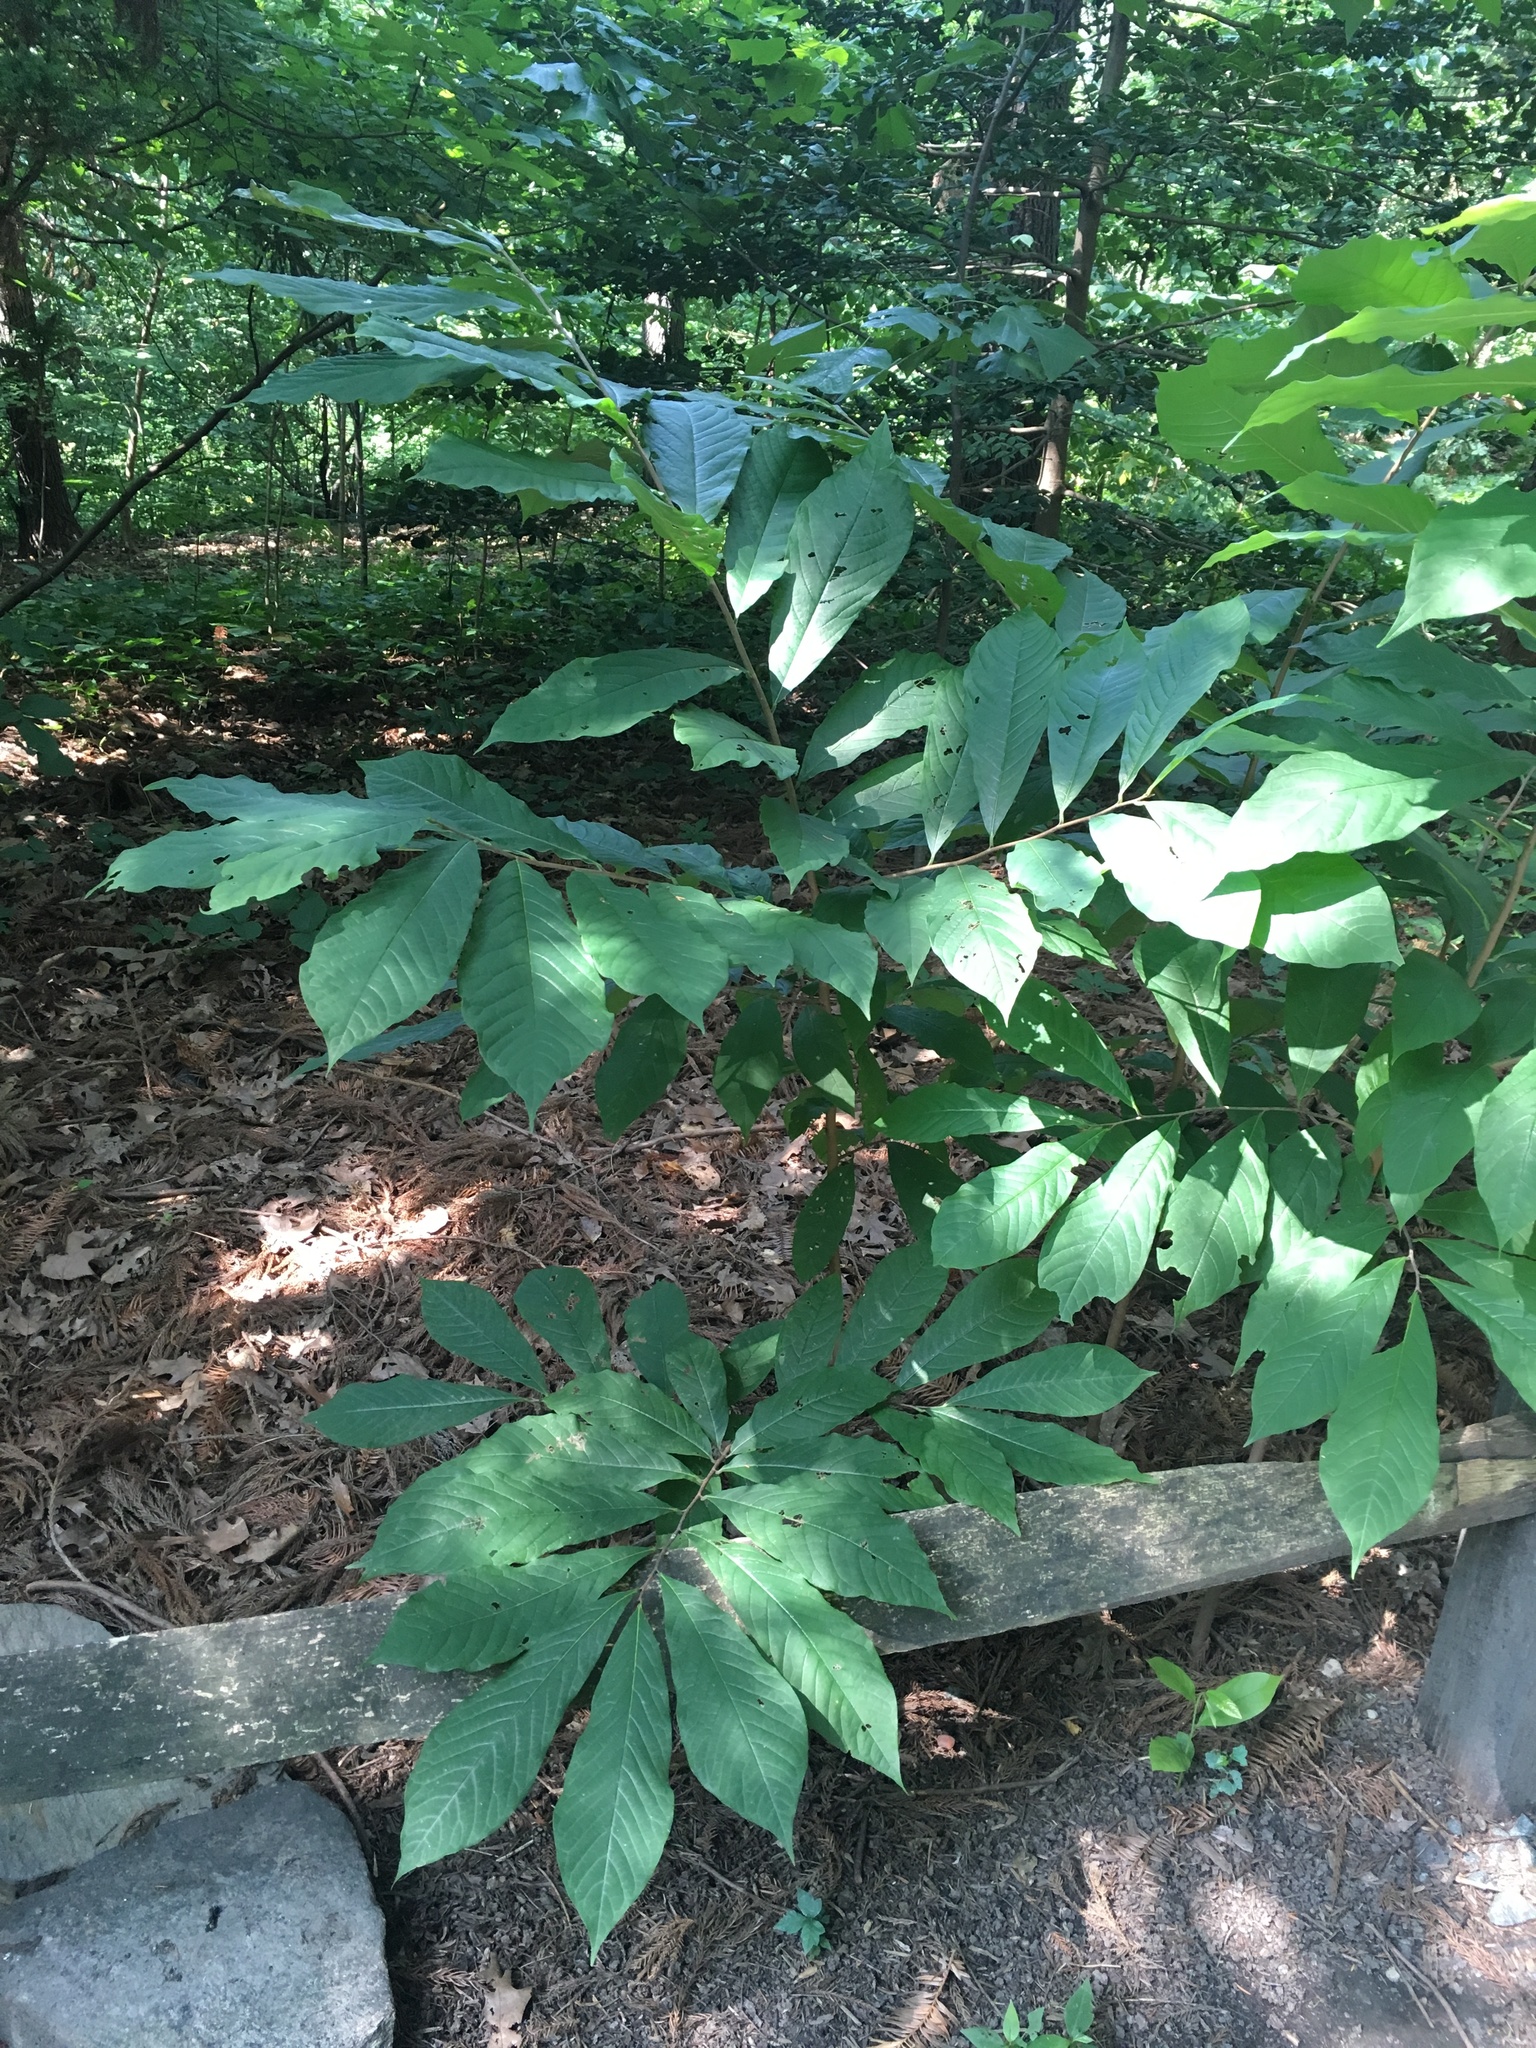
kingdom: Plantae
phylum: Tracheophyta
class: Magnoliopsida
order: Magnoliales
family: Annonaceae
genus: Asimina
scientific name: Asimina triloba
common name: Dog-banana
